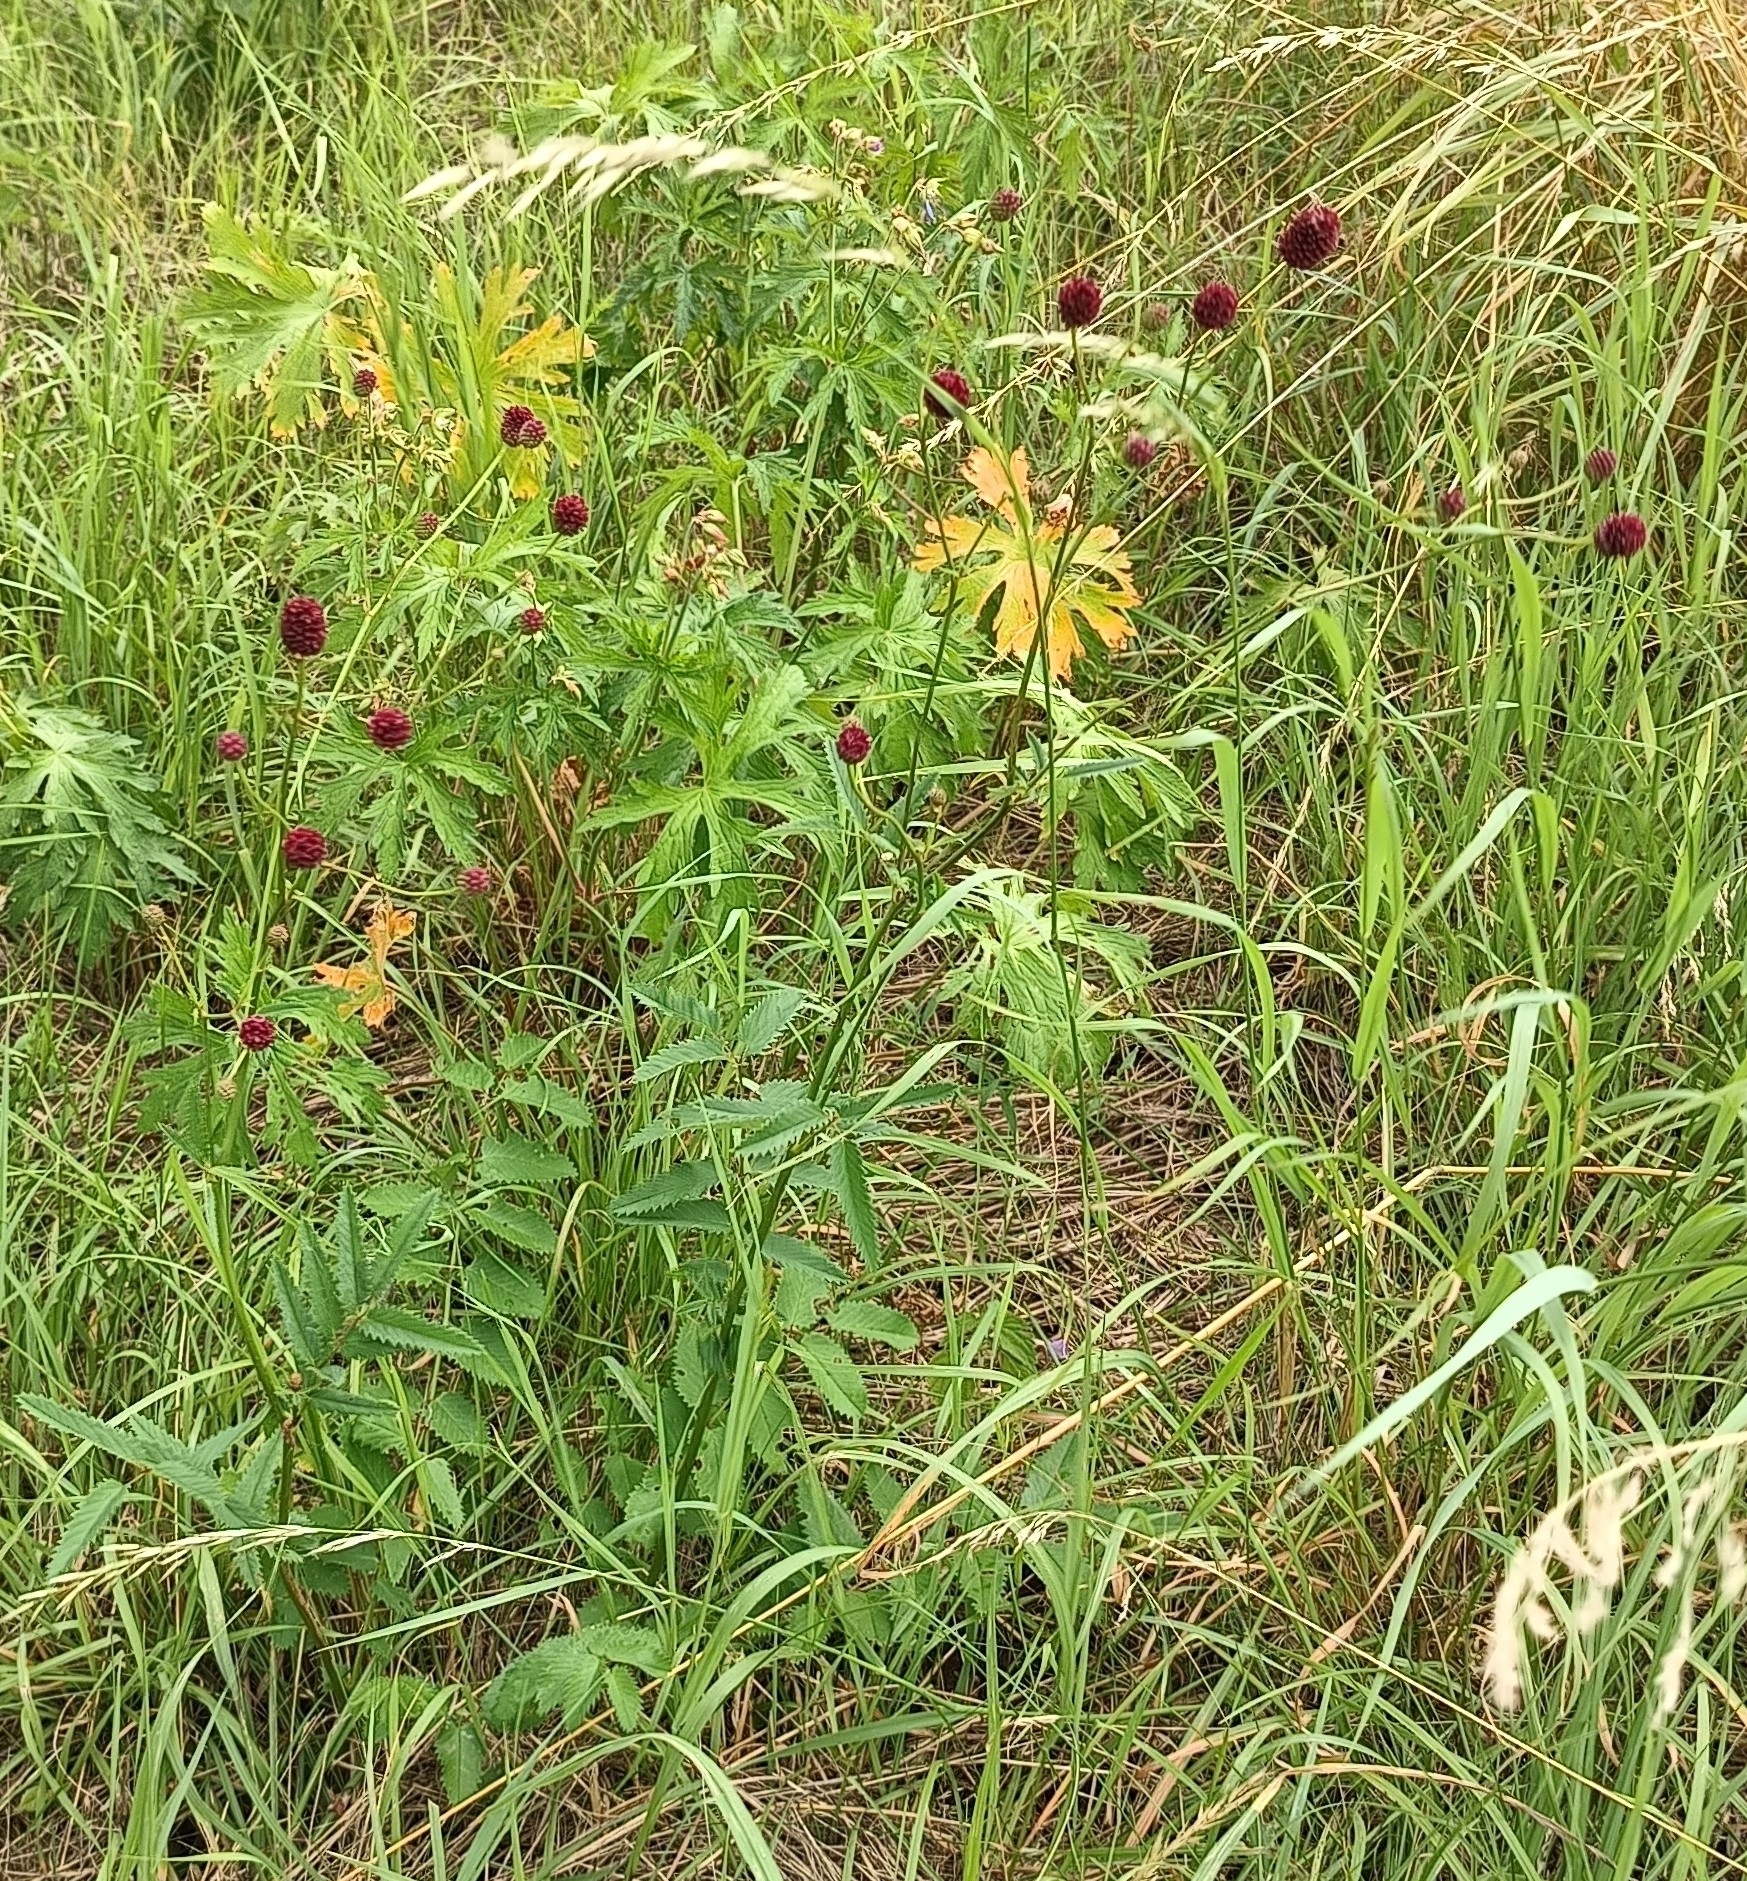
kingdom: Plantae
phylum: Tracheophyta
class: Magnoliopsida
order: Rosales
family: Rosaceae
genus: Sanguisorba
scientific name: Sanguisorba officinalis
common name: Great burnet
